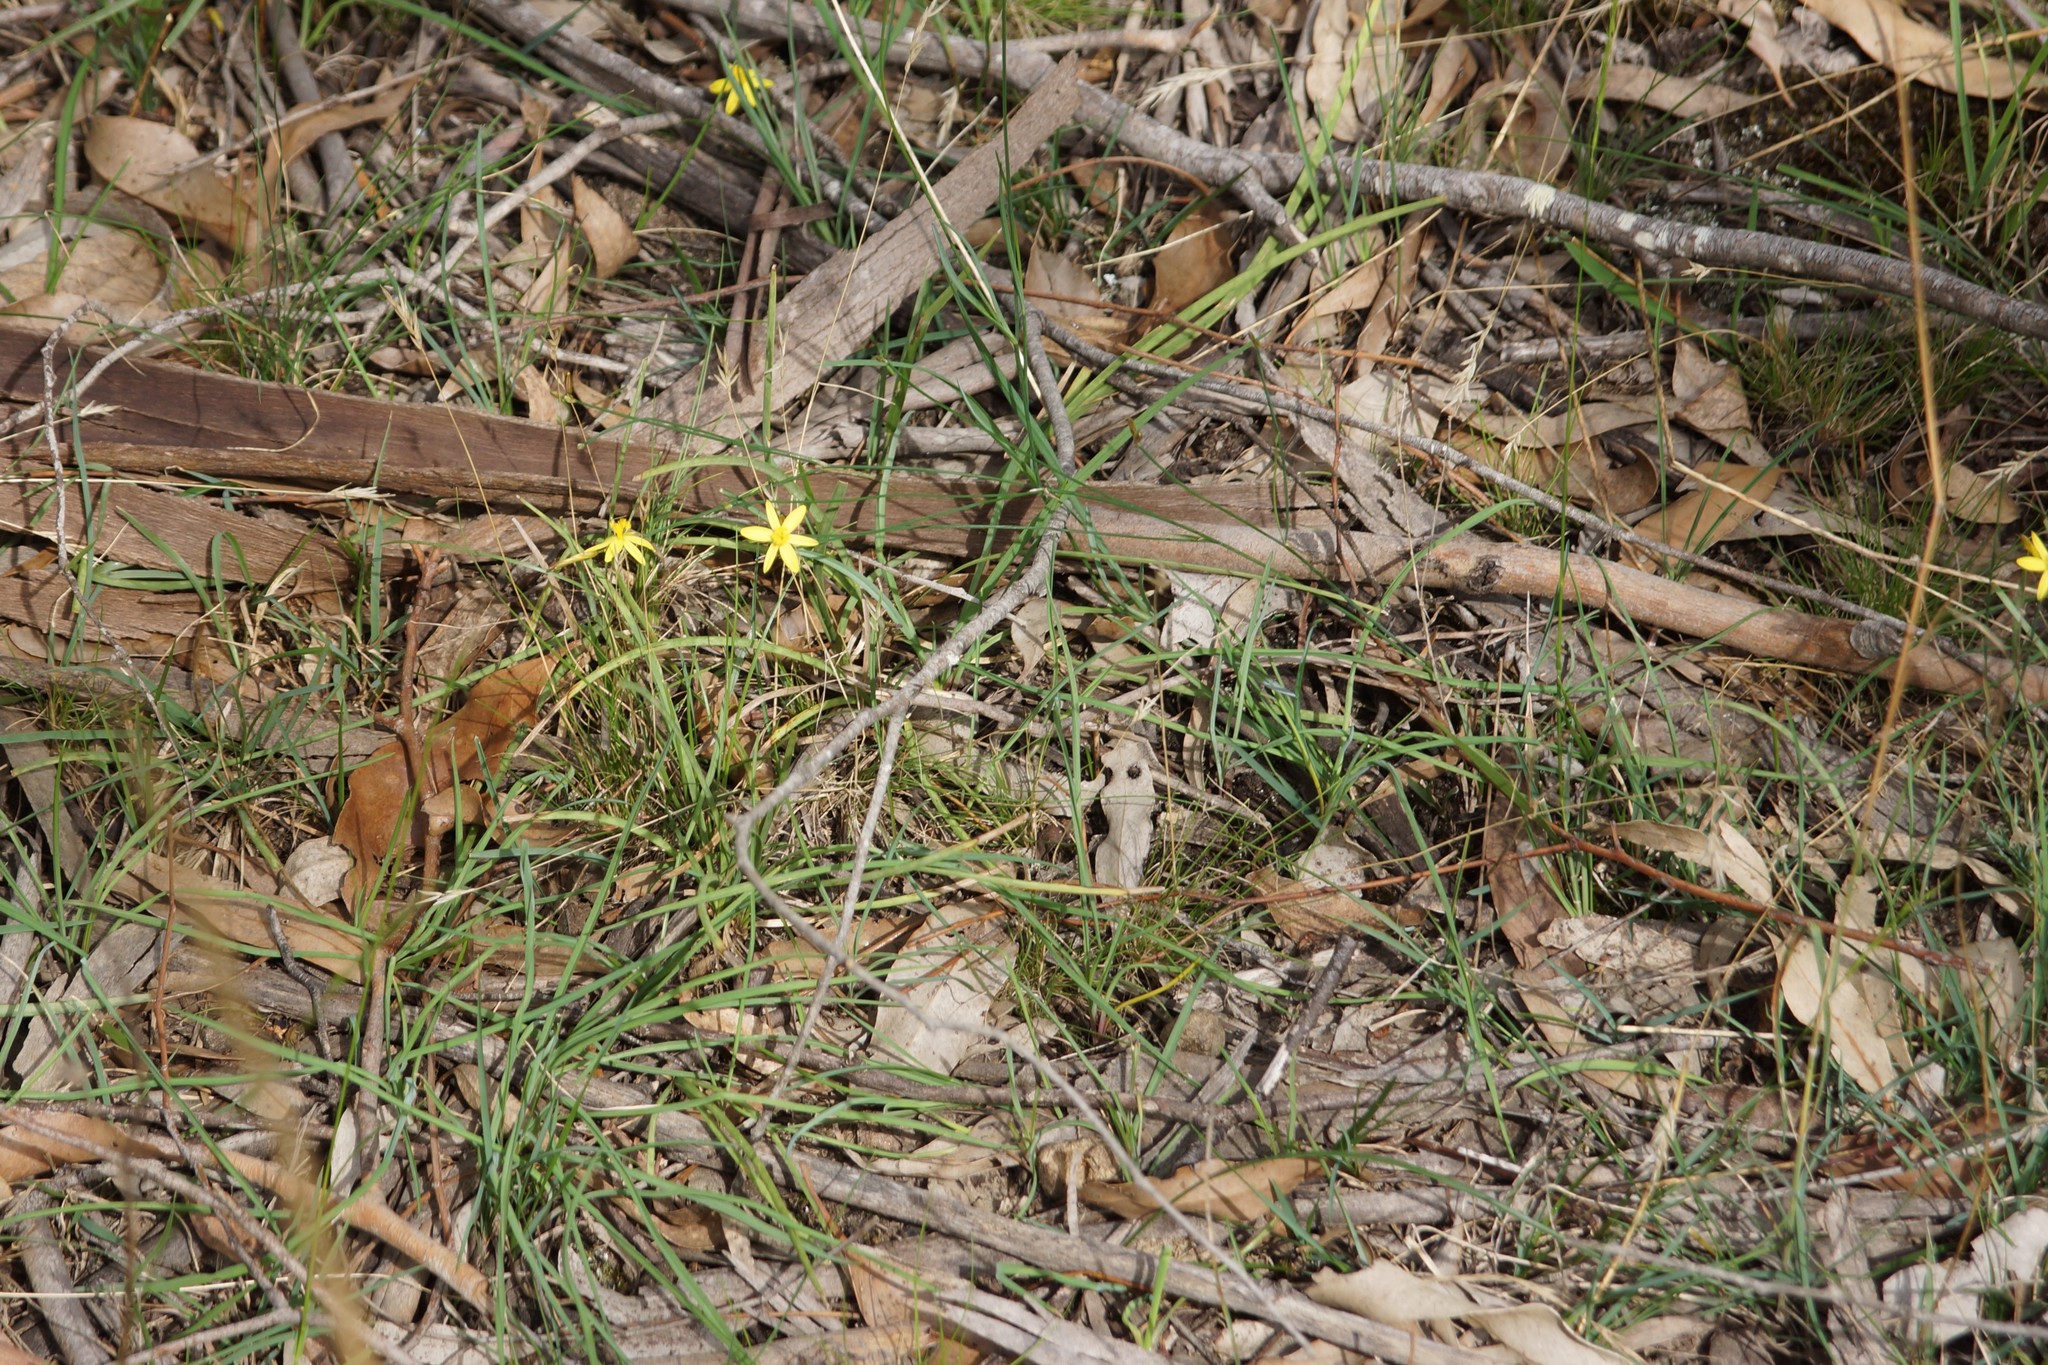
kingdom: Plantae
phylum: Tracheophyta
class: Liliopsida
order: Asparagales
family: Asphodelaceae
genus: Tricoryne
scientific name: Tricoryne elatior
